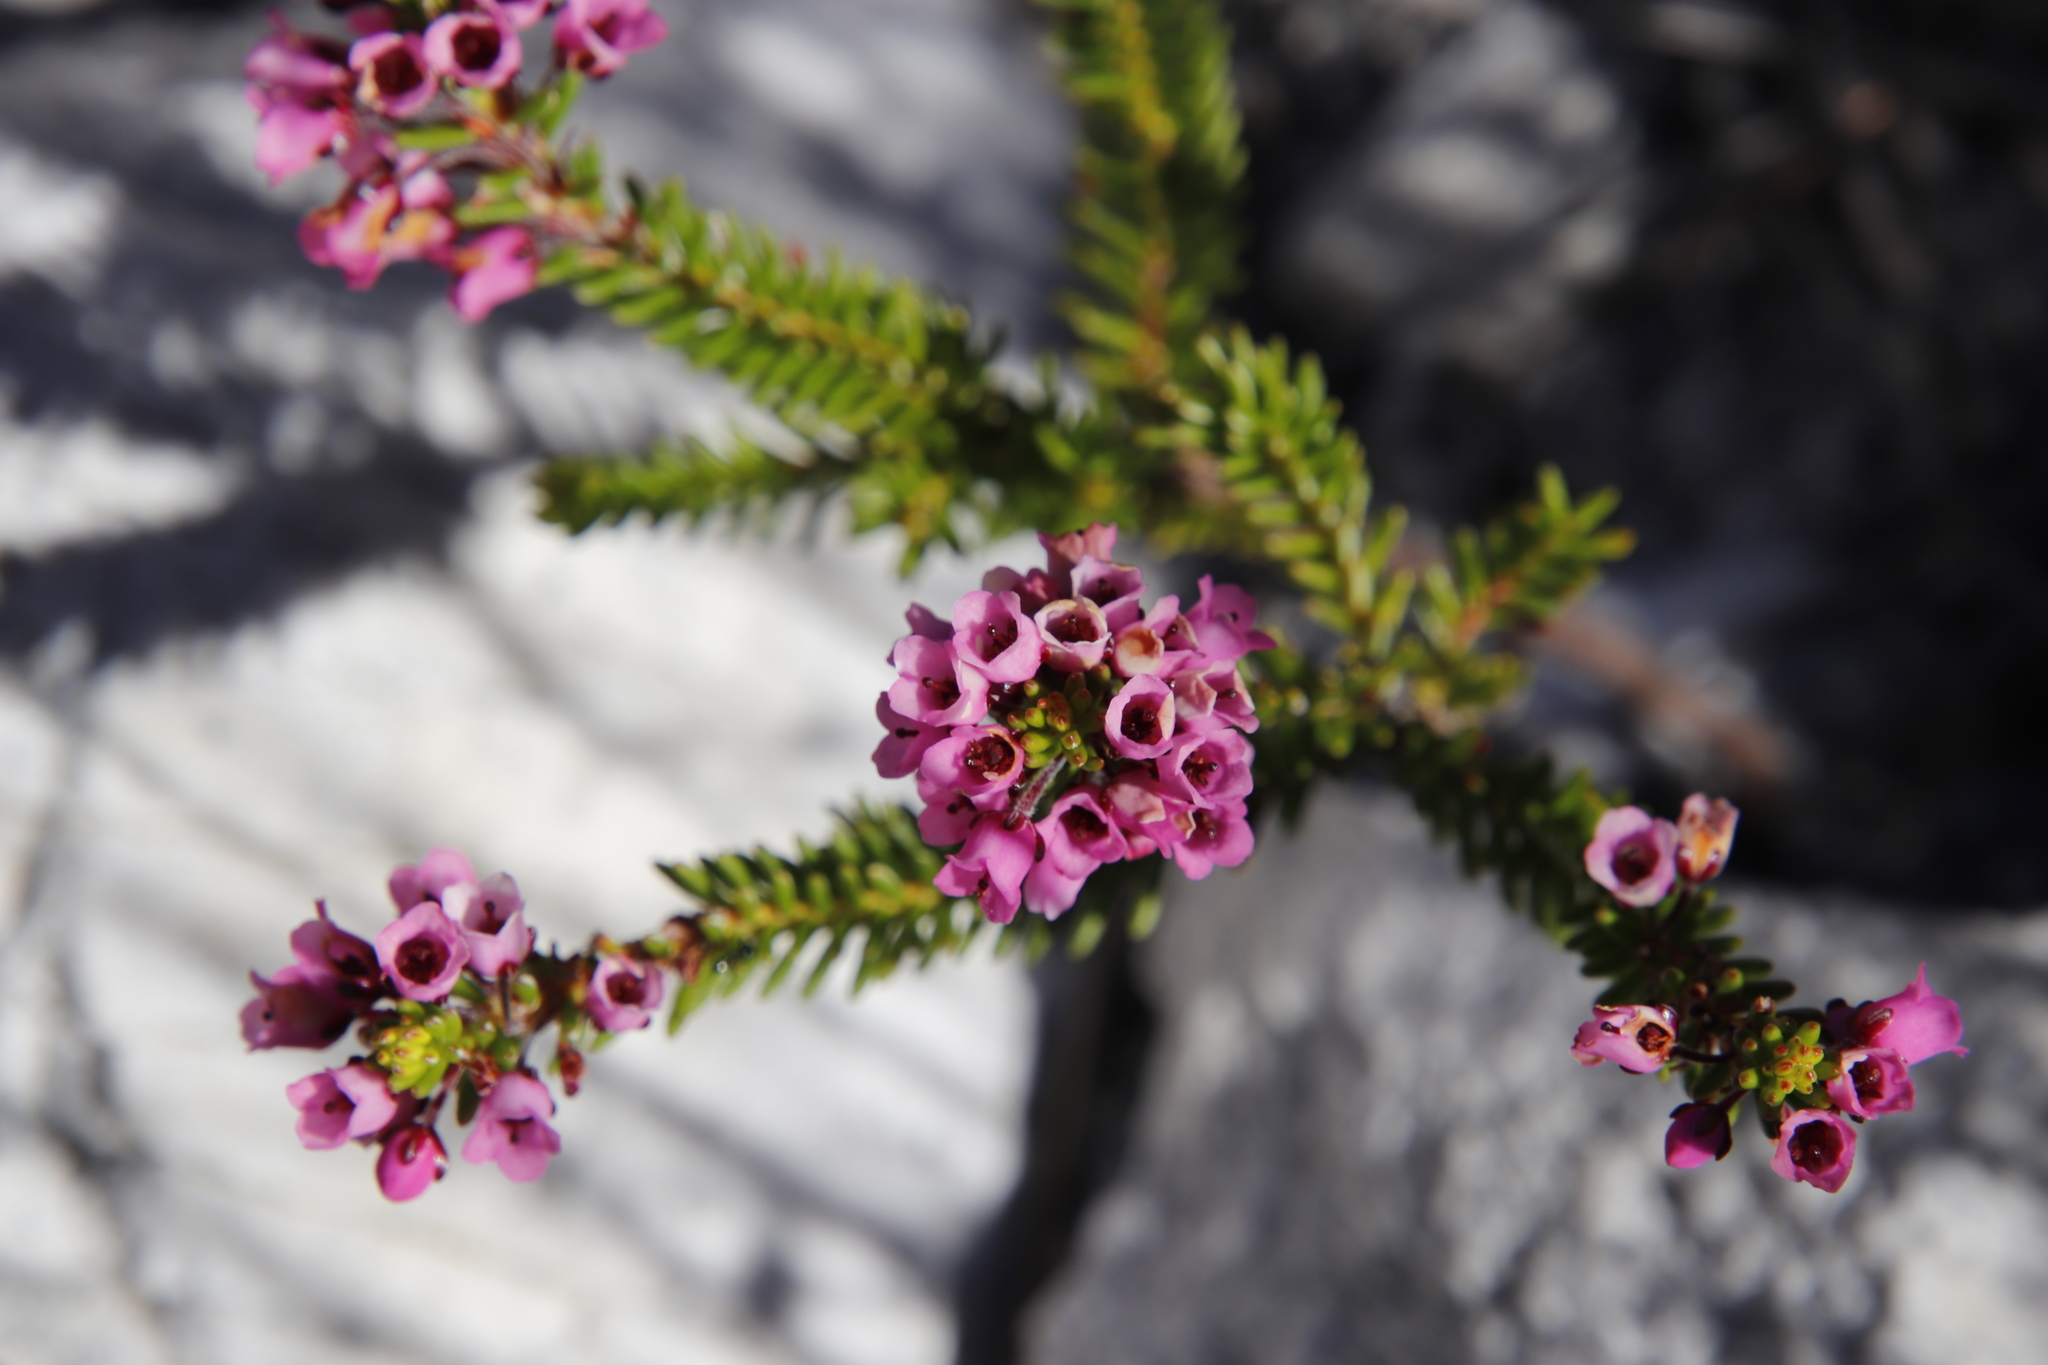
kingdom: Plantae
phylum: Tracheophyta
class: Magnoliopsida
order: Ericales
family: Ericaceae
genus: Erica
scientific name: Erica pulchella
